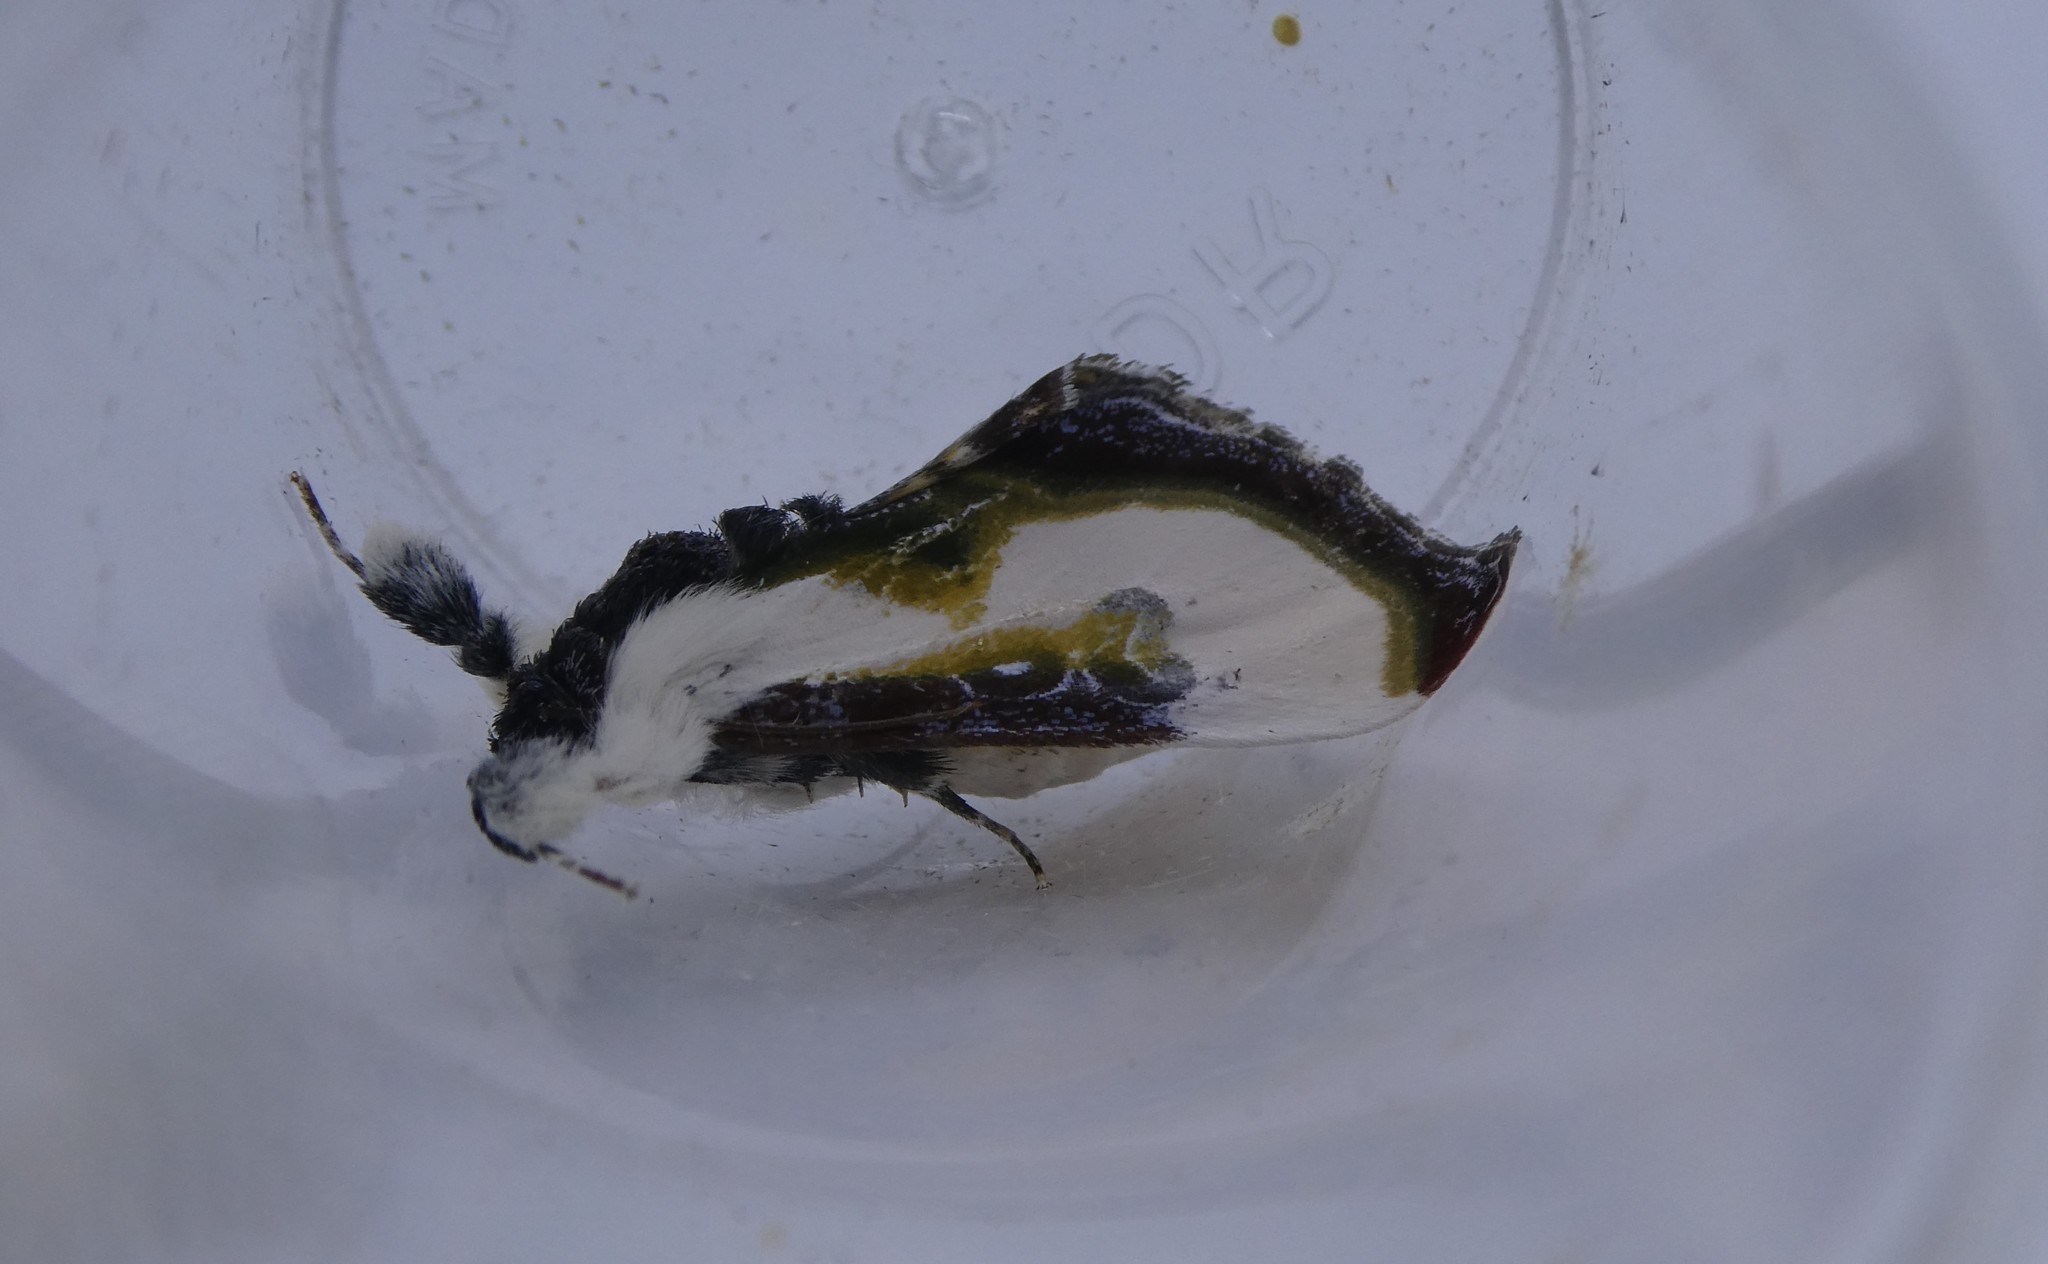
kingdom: Animalia
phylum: Arthropoda
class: Insecta
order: Lepidoptera
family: Noctuidae
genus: Eudryas
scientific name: Eudryas grata
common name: Beautiful wood-nymph
